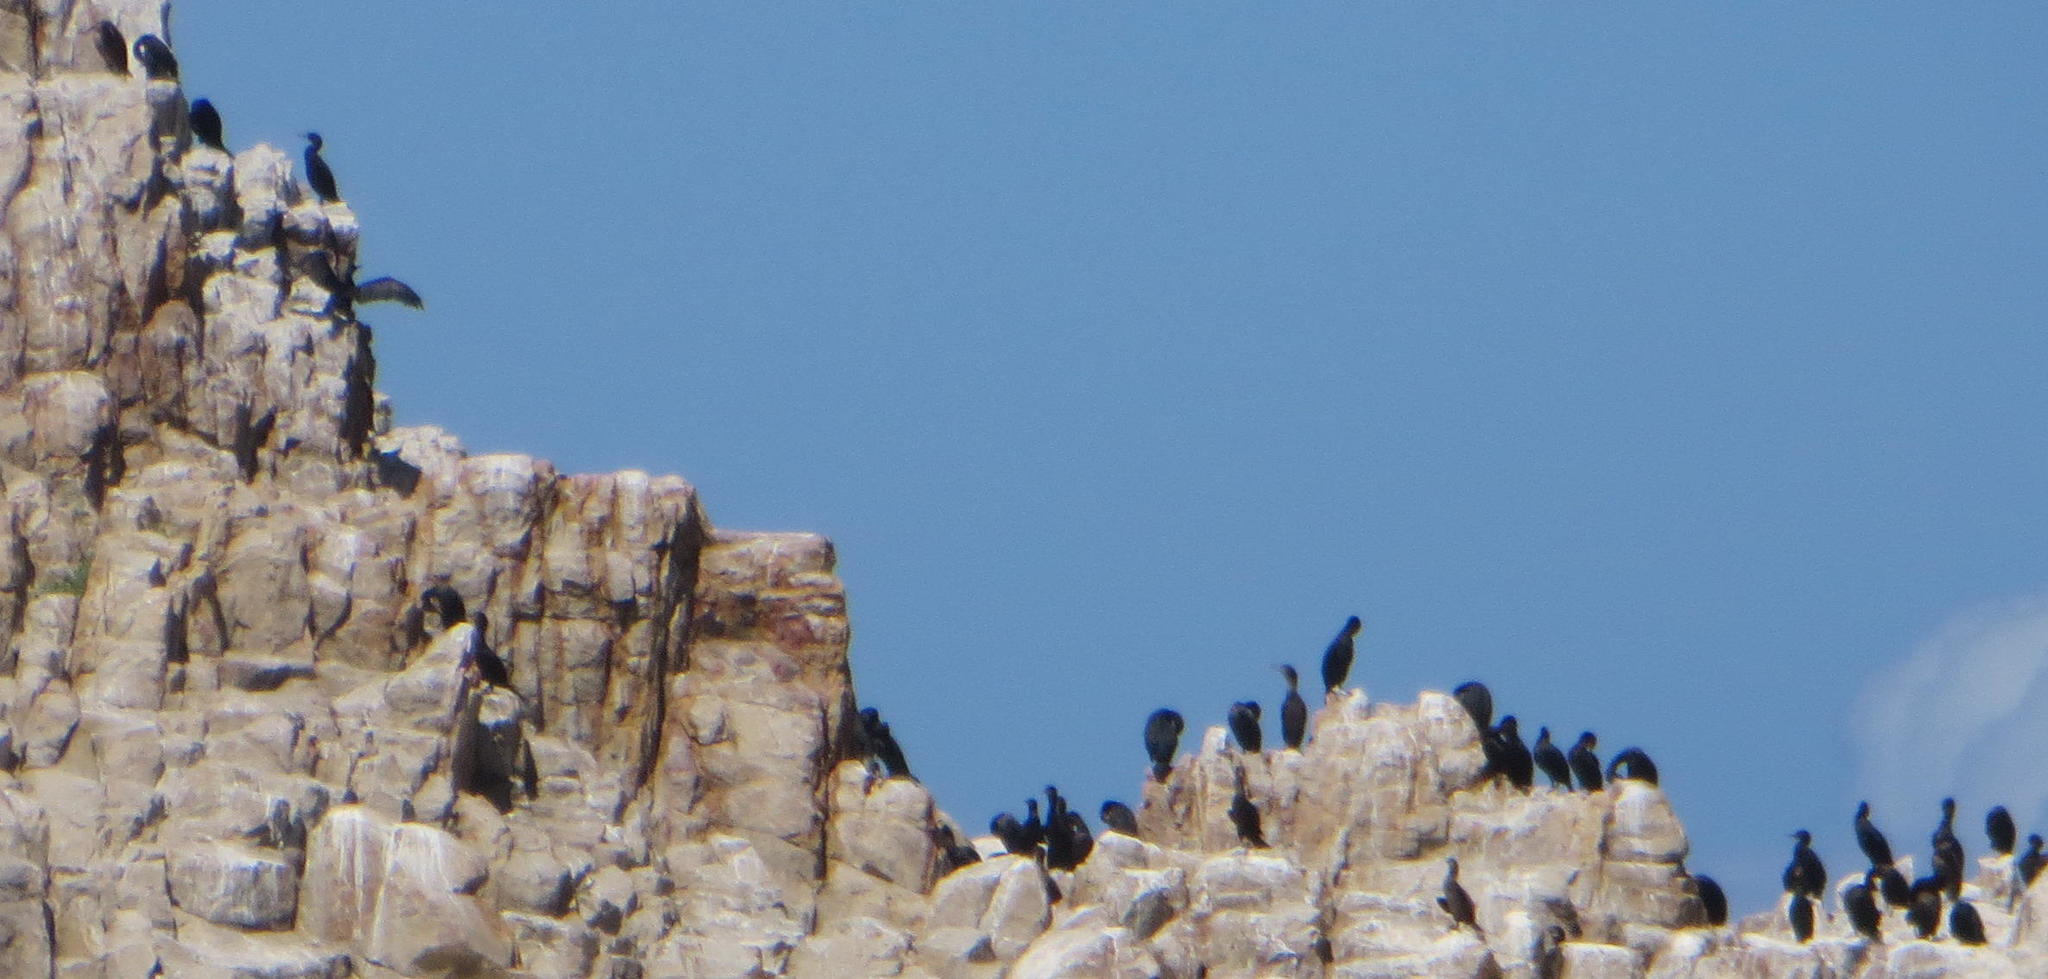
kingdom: Animalia
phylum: Chordata
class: Aves
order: Suliformes
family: Phalacrocoracidae
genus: Phalacrocorax
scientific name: Phalacrocorax capensis
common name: Cape cormorant
